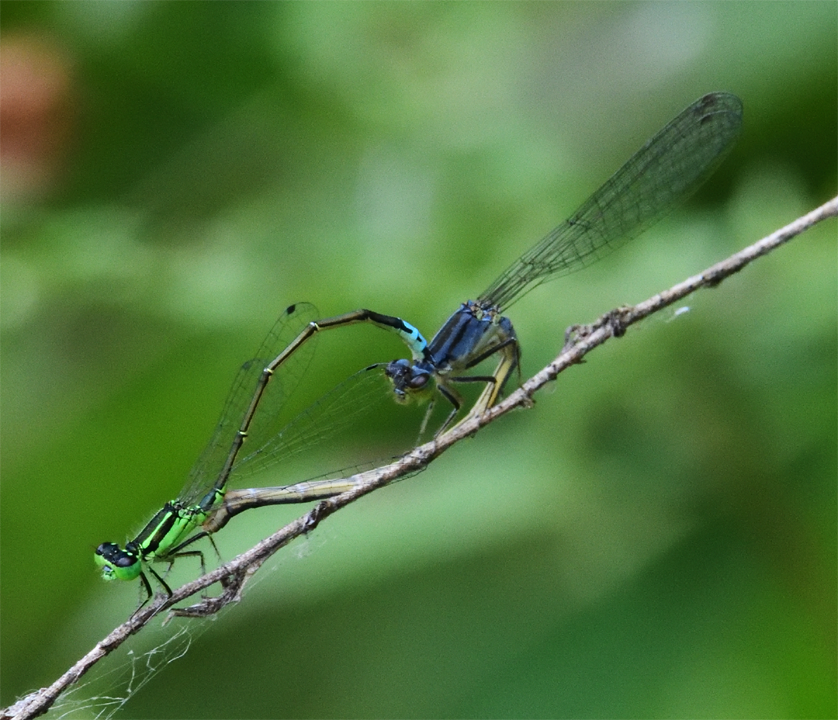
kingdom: Animalia
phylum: Arthropoda
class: Insecta
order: Odonata
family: Coenagrionidae
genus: Ischnura
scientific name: Ischnura verticalis
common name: Eastern forktail
